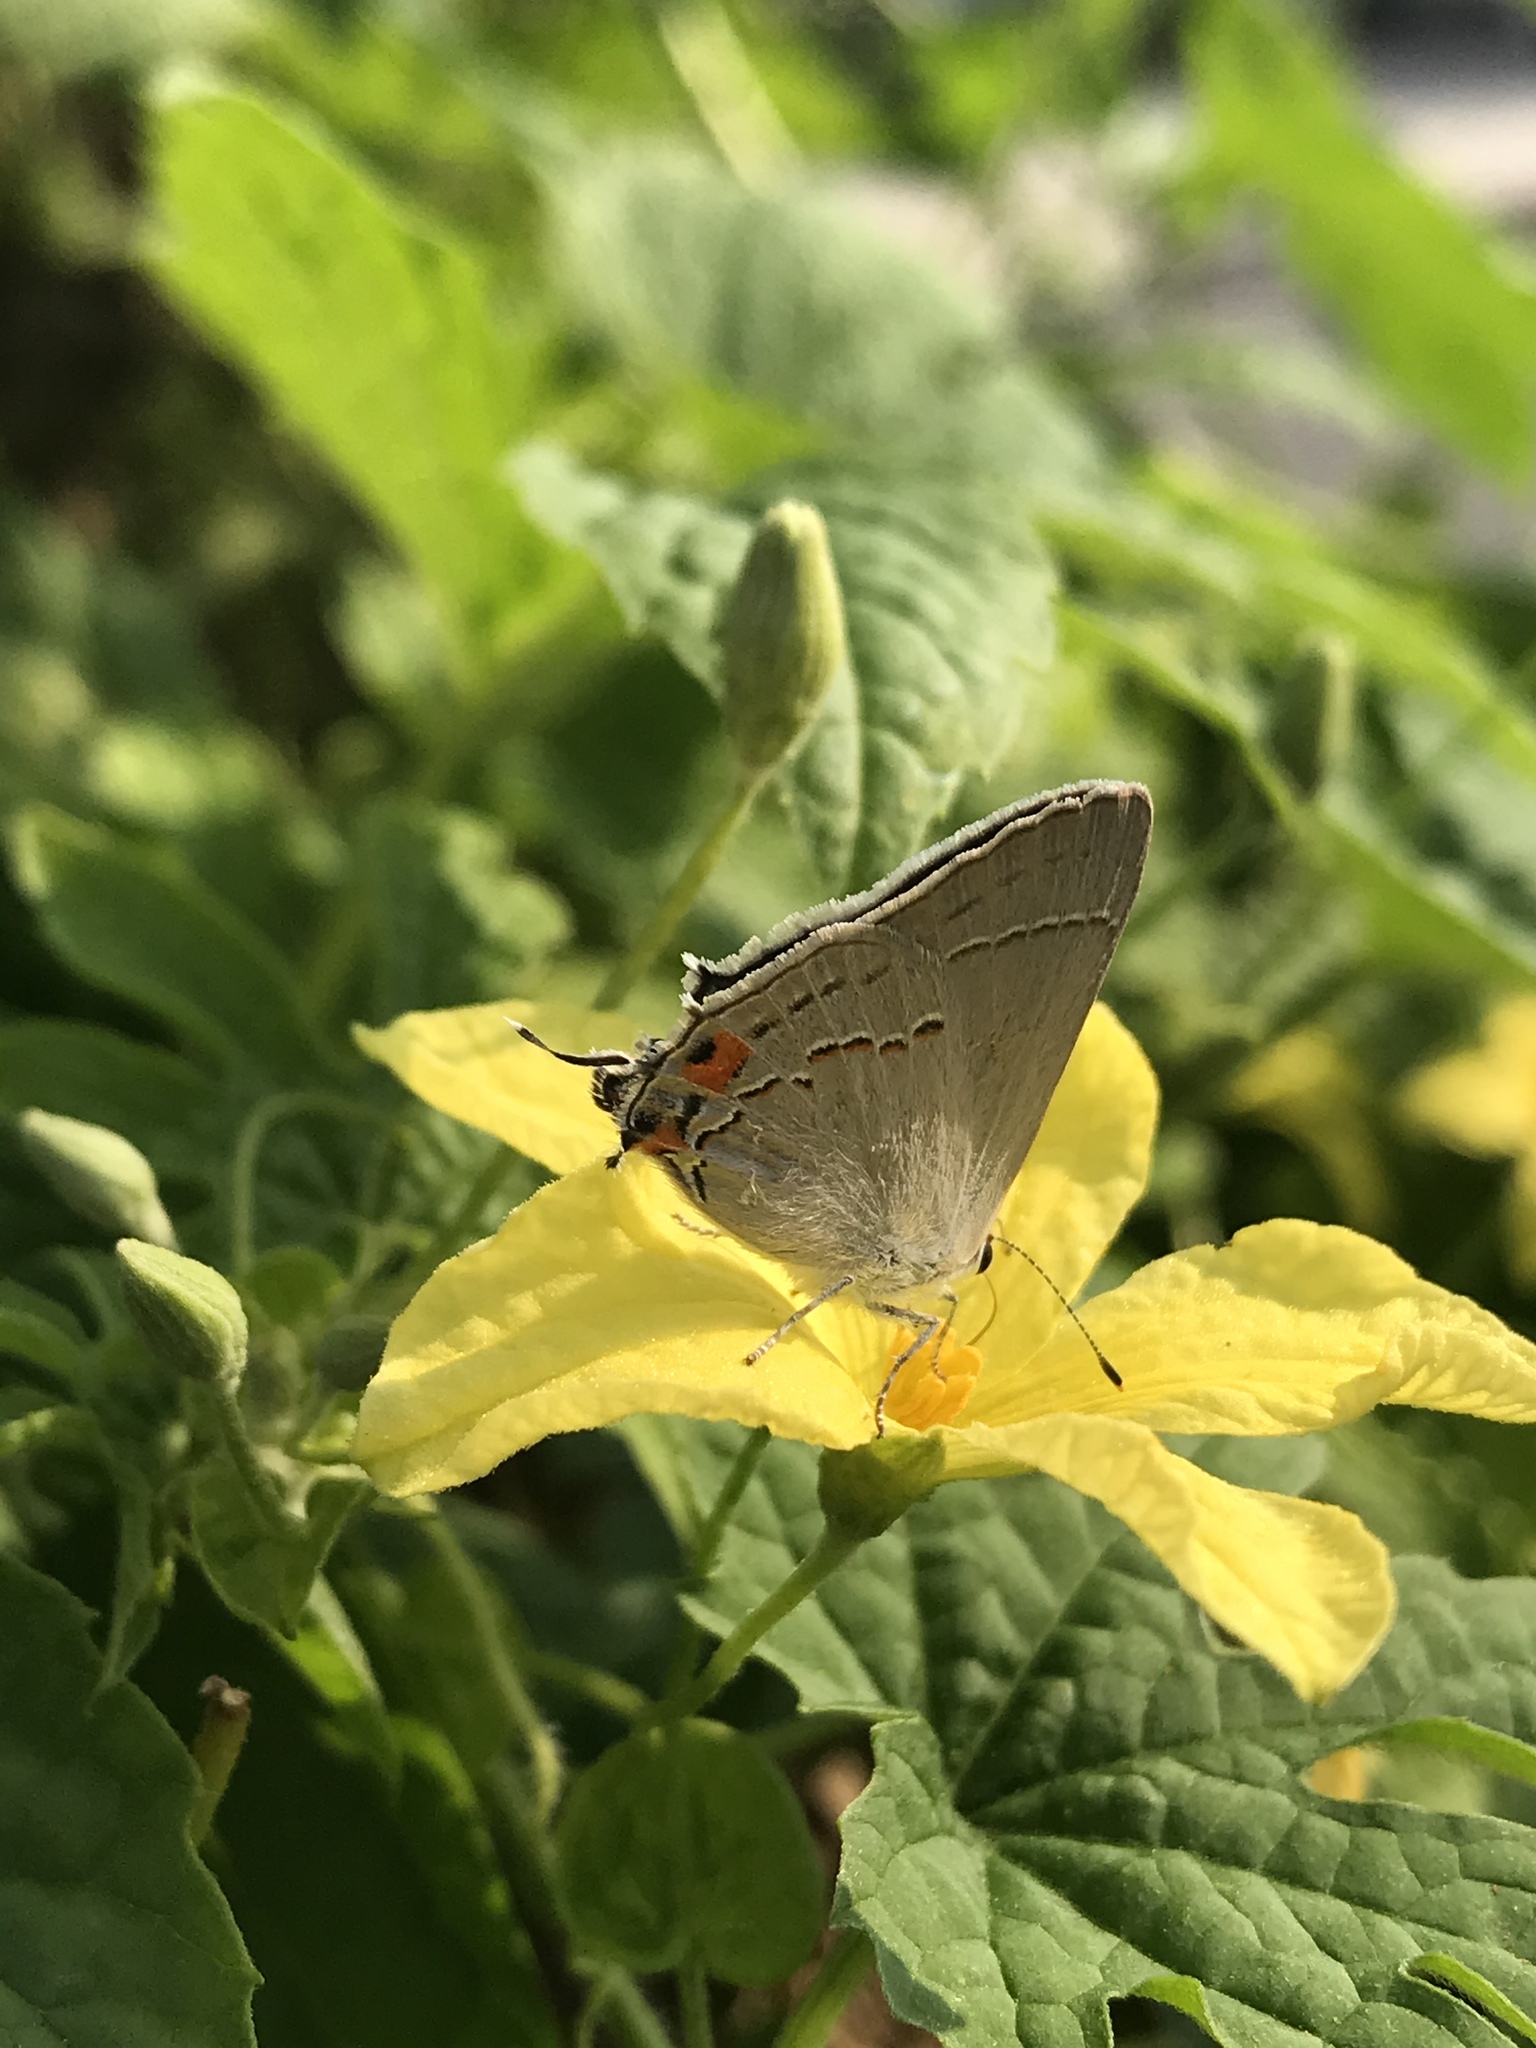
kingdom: Animalia
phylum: Arthropoda
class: Insecta
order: Lepidoptera
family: Lycaenidae
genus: Strymon
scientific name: Strymon melinus
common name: Gray hairstreak
